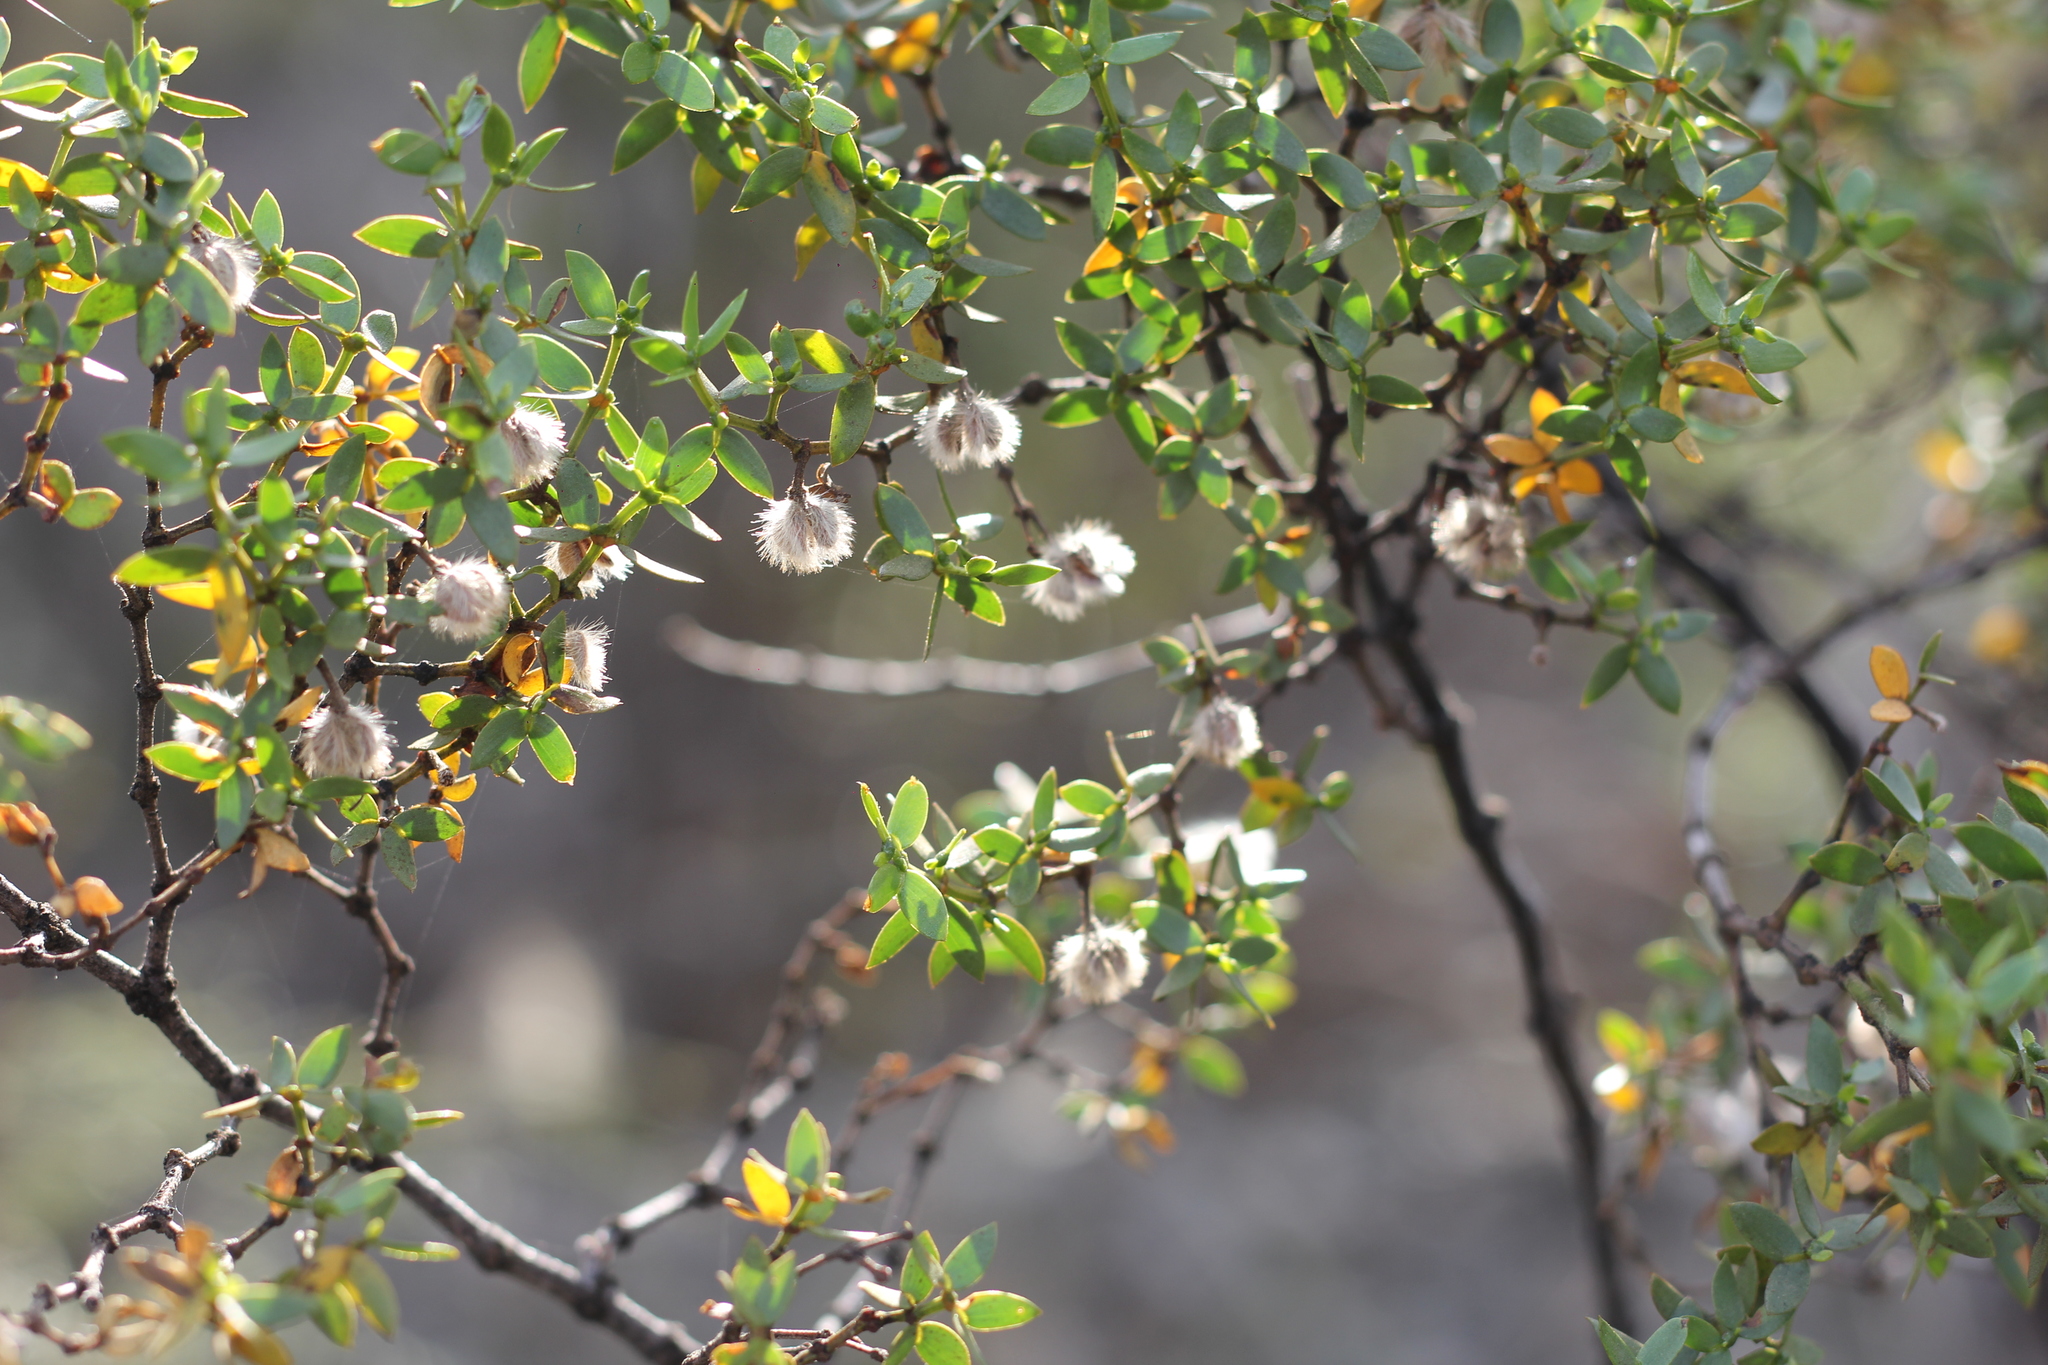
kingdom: Plantae
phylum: Tracheophyta
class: Magnoliopsida
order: Zygophyllales
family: Zygophyllaceae
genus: Larrea
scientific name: Larrea divaricata
